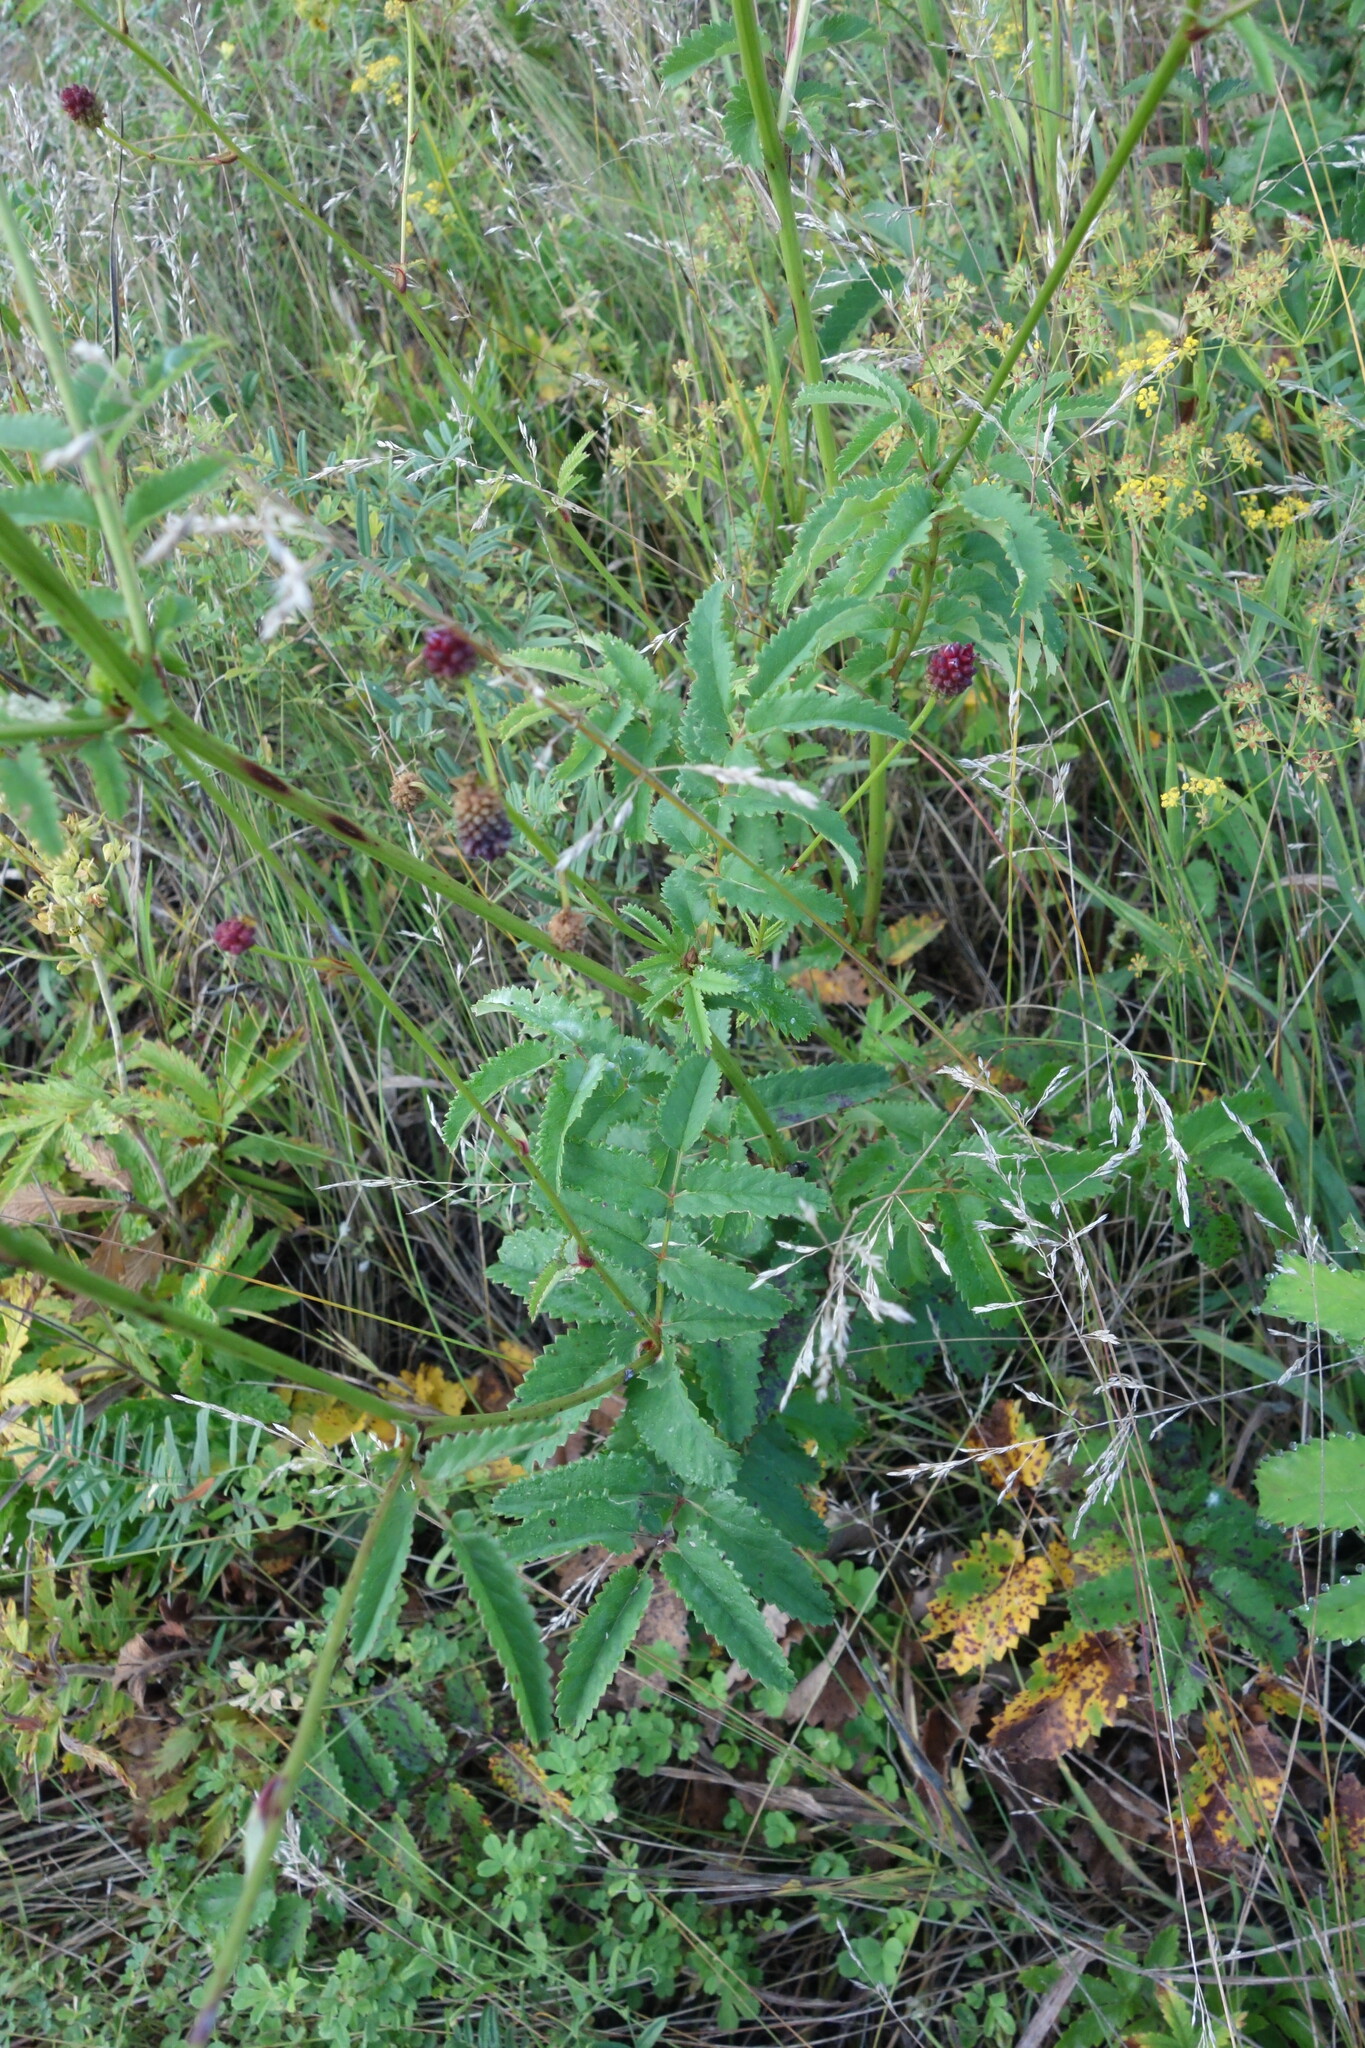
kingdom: Plantae
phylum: Tracheophyta
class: Magnoliopsida
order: Rosales
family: Rosaceae
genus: Sanguisorba
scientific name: Sanguisorba officinalis
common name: Great burnet
